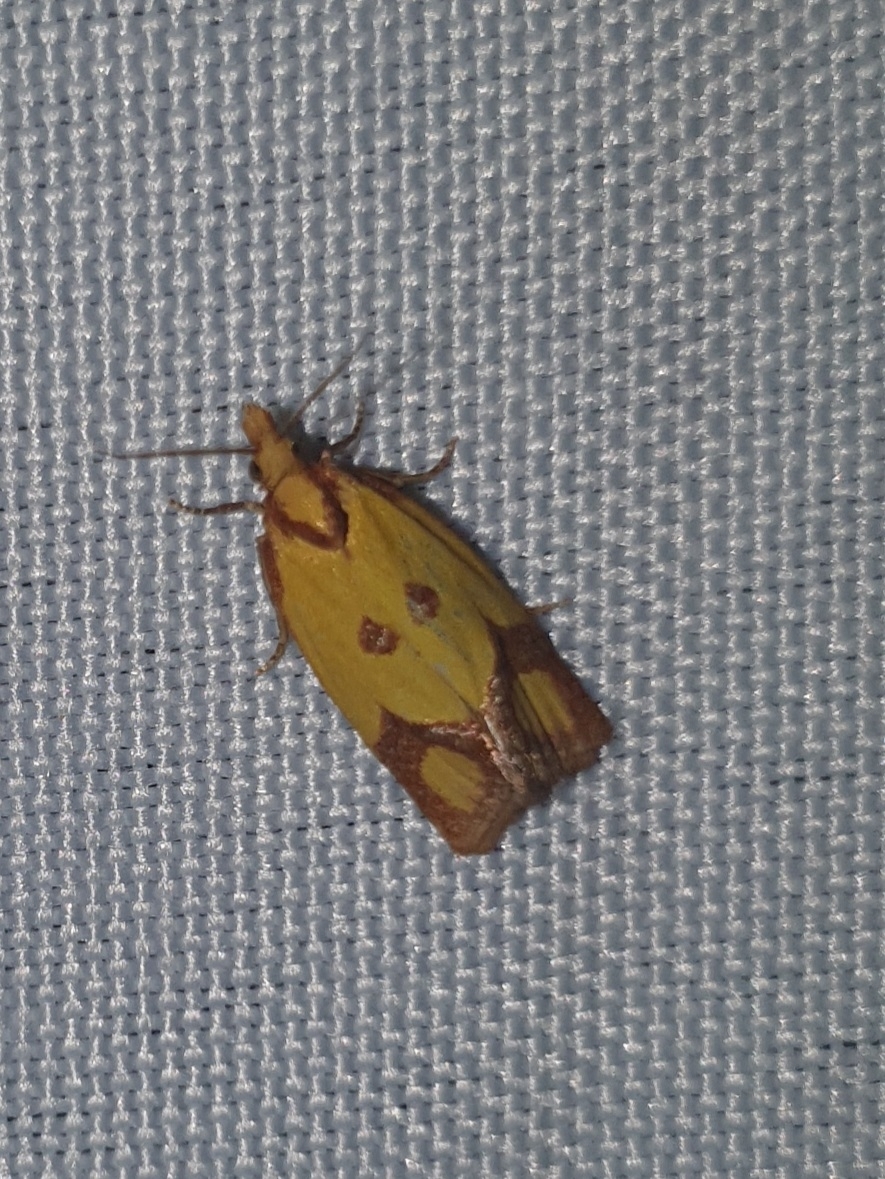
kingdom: Animalia
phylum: Arthropoda
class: Insecta
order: Lepidoptera
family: Tortricidae
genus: Agapeta
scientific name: Agapeta zoegana
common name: Sulfur knapweed root moth
